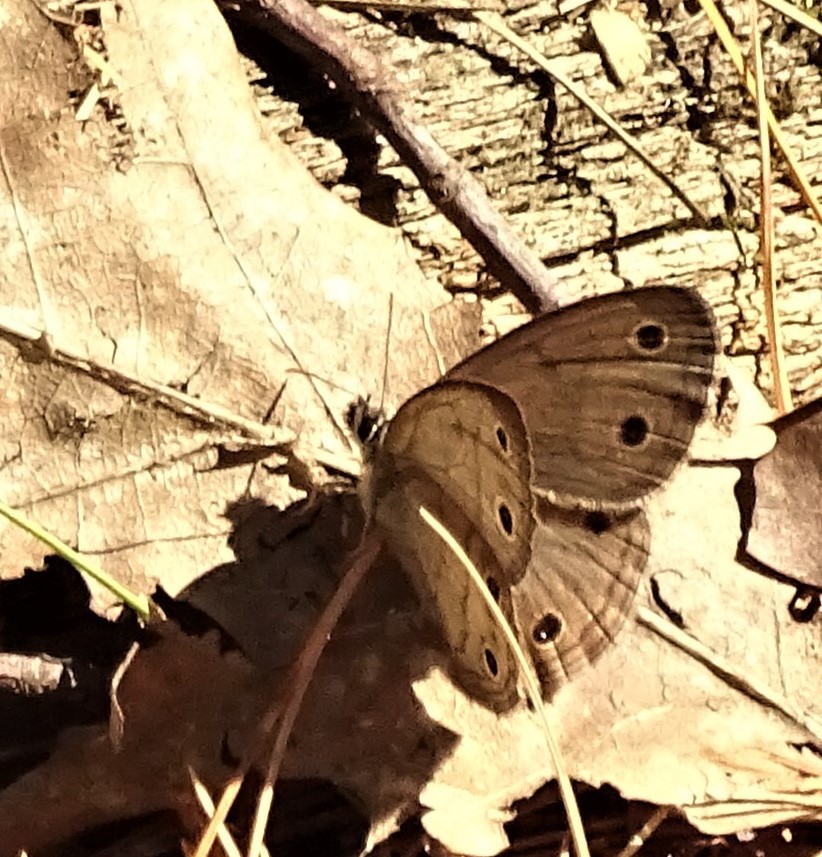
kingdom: Animalia
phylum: Arthropoda
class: Insecta
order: Lepidoptera
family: Nymphalidae
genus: Euptychia
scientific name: Euptychia cymela
